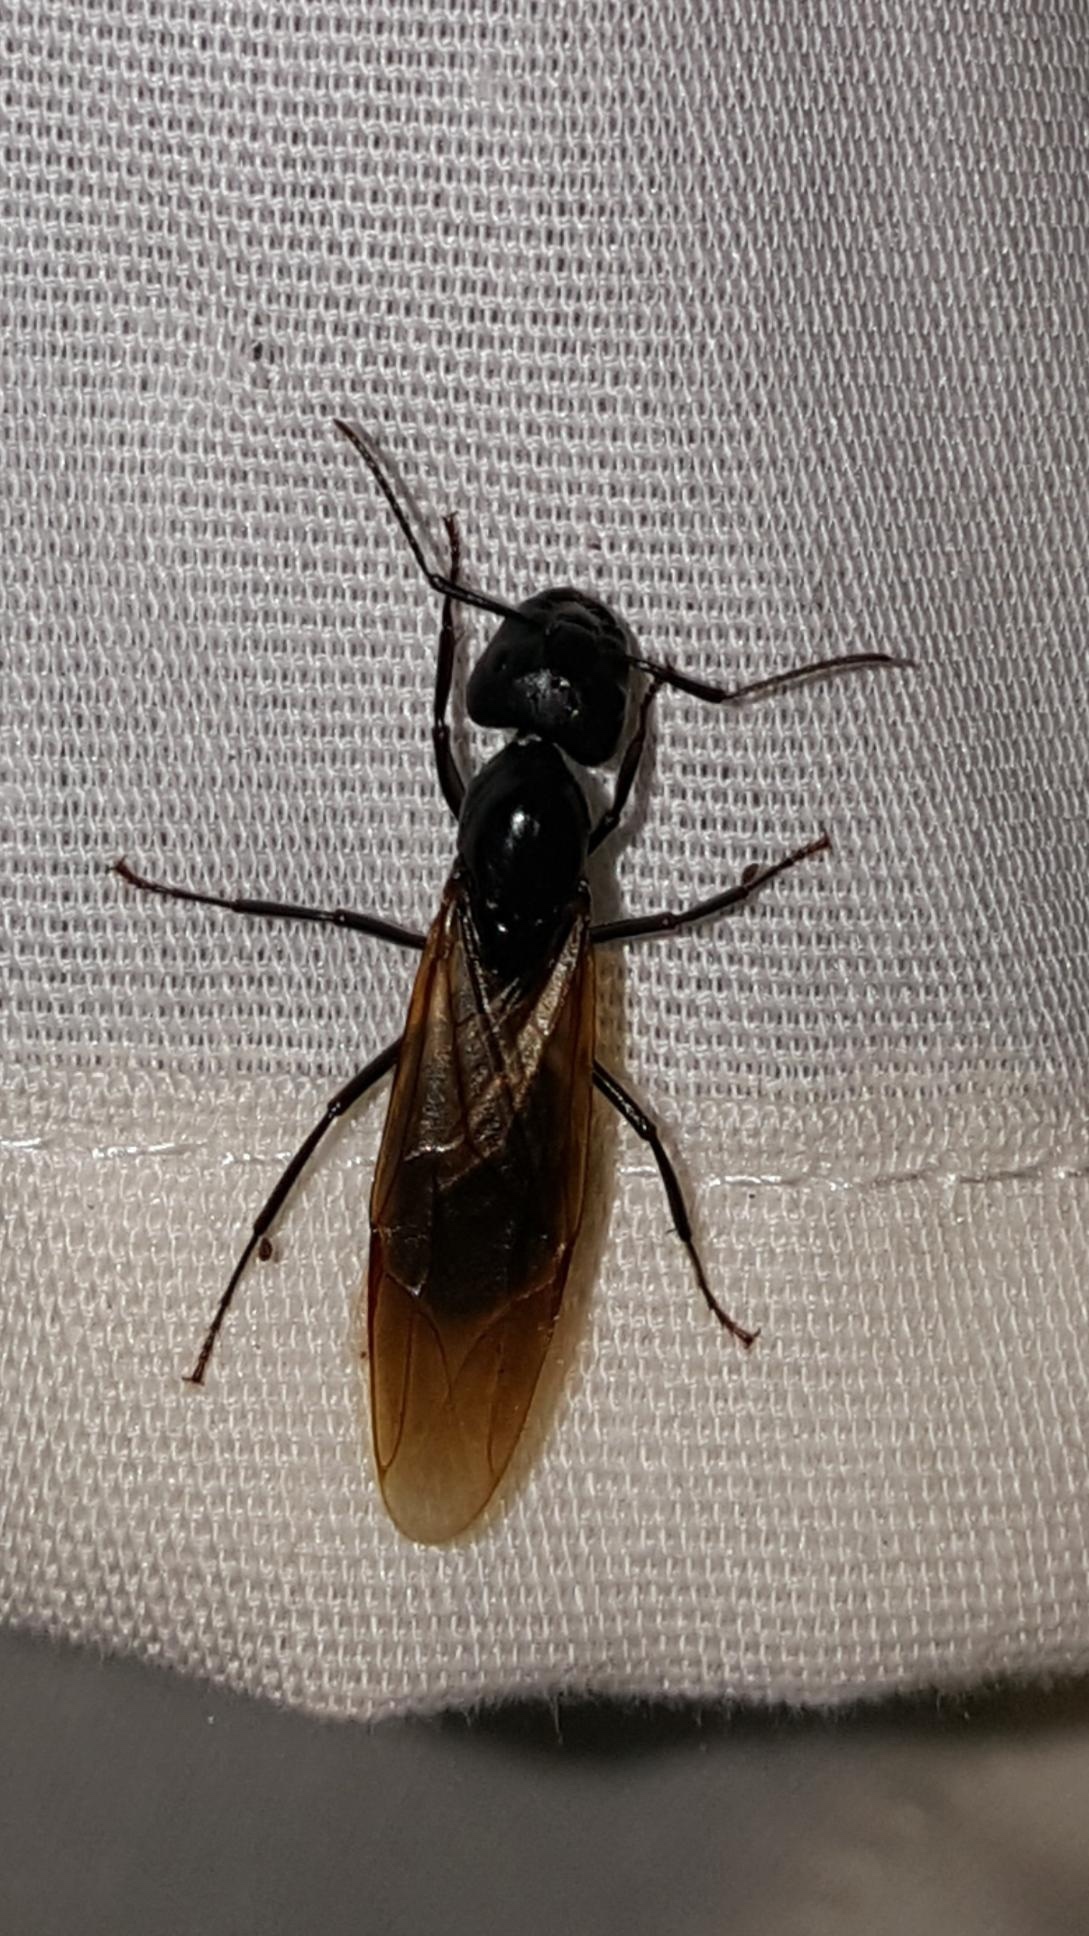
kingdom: Animalia
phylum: Arthropoda
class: Insecta
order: Hymenoptera
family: Formicidae
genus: Camponotus
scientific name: Camponotus pennsylvanicus
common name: Black carpenter ant
